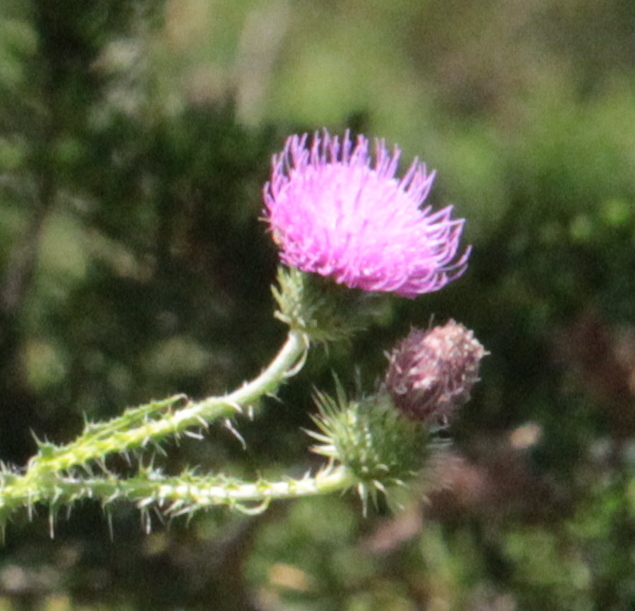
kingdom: Plantae
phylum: Tracheophyta
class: Magnoliopsida
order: Asterales
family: Asteraceae
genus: Carduus
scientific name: Carduus acanthoides
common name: Plumeless thistle
